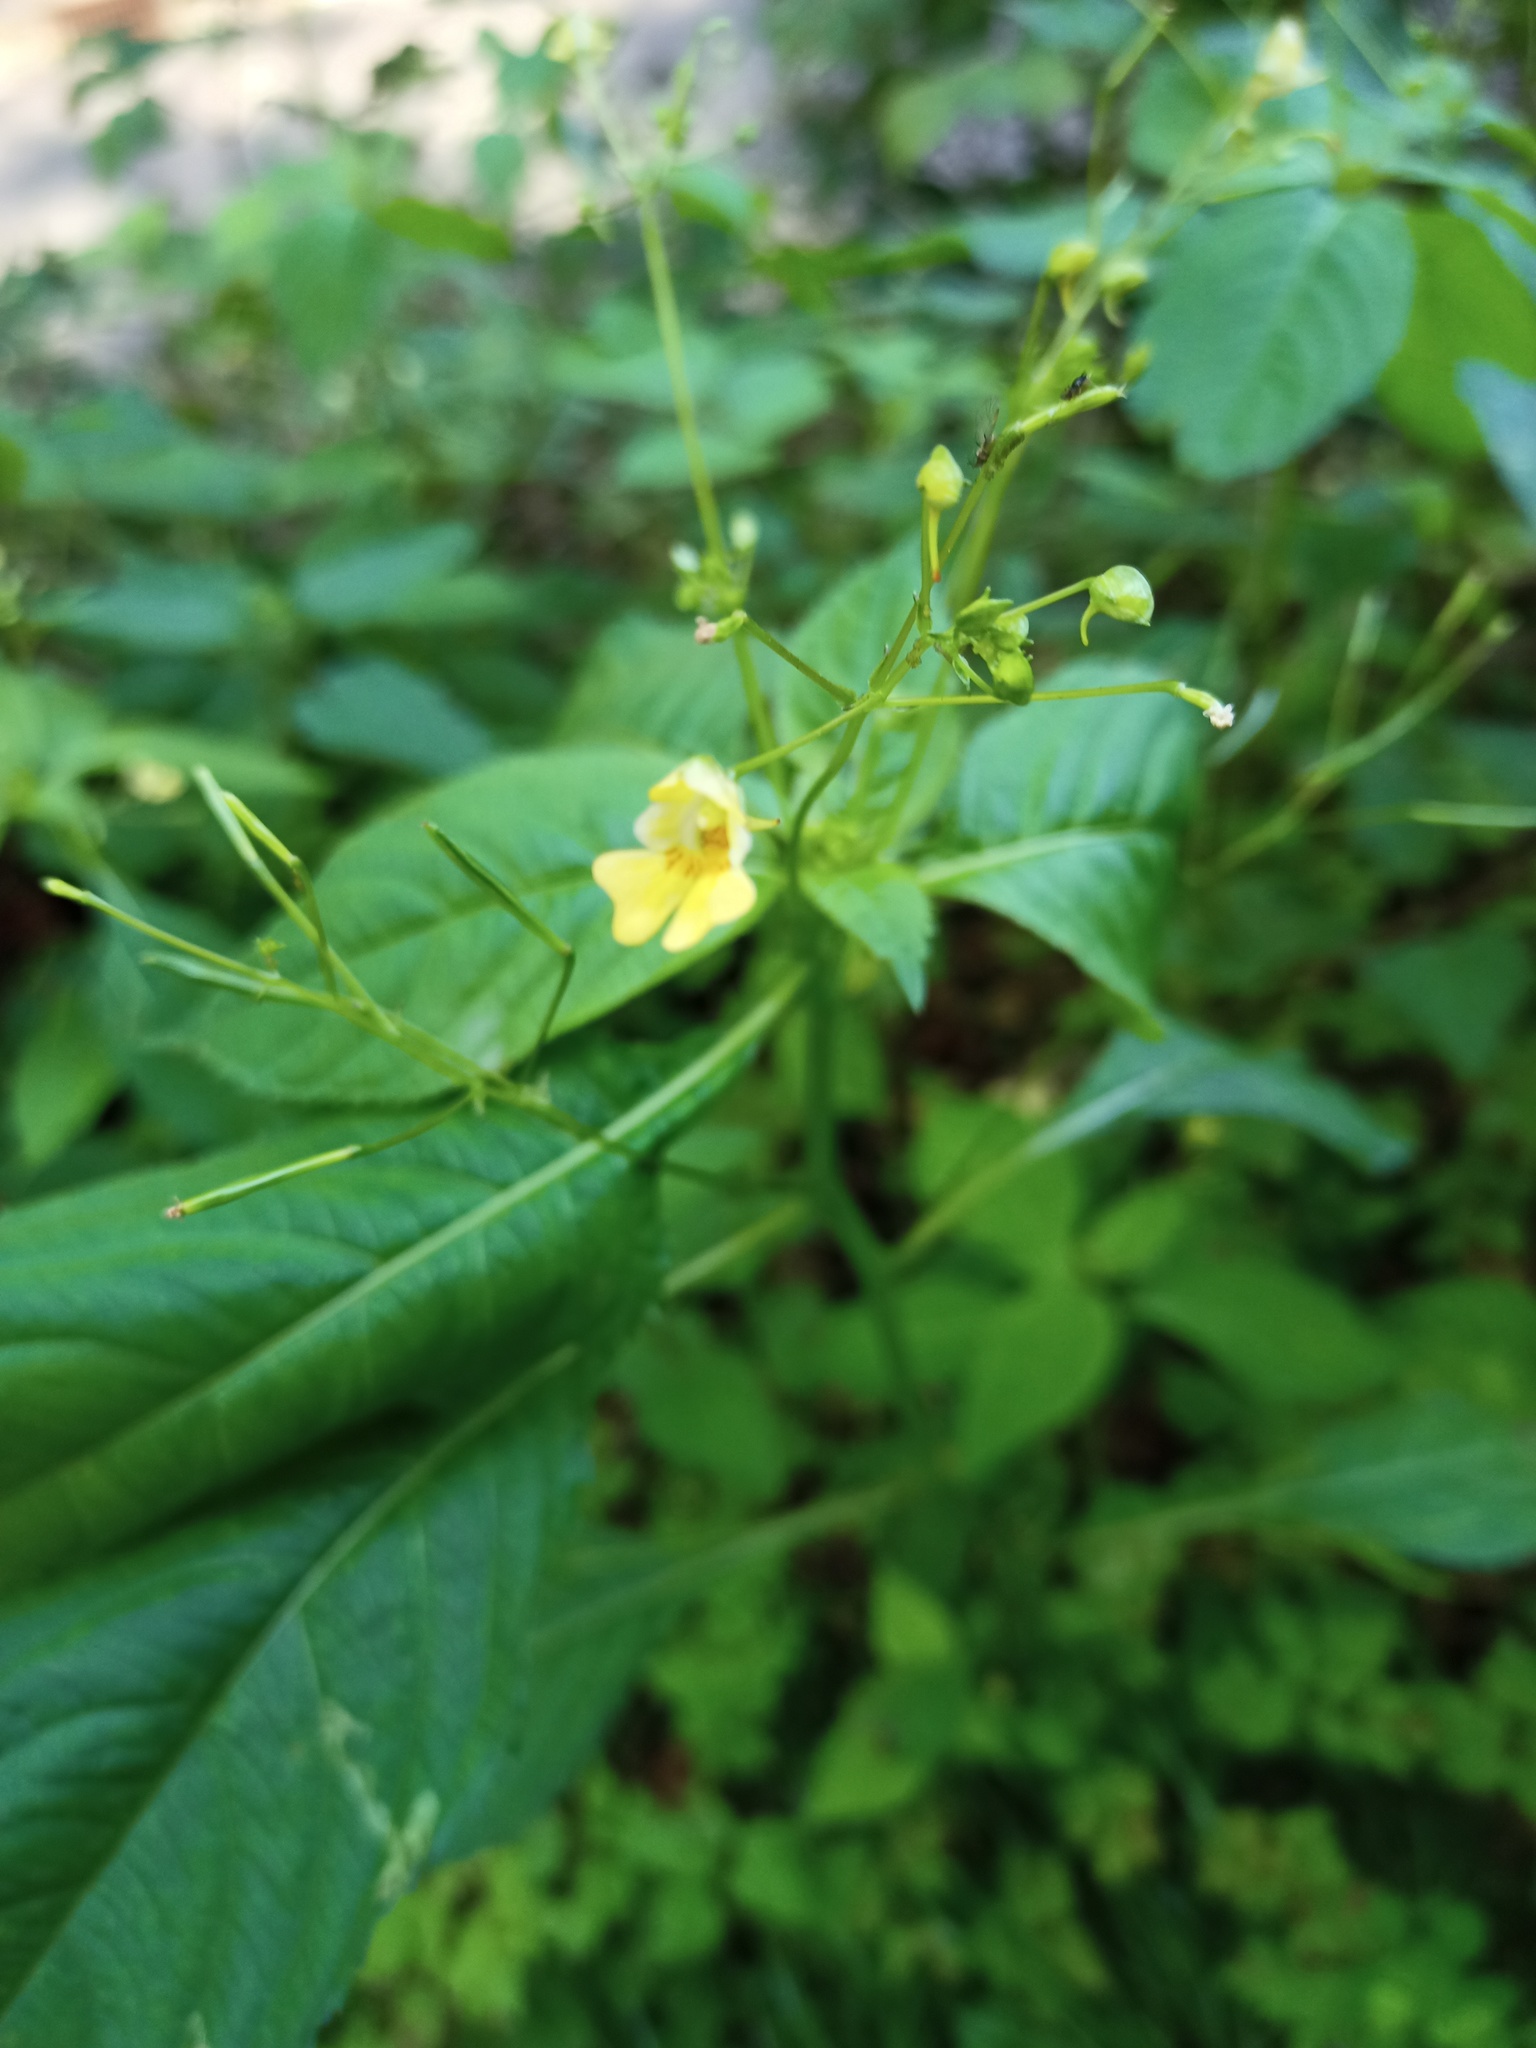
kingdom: Plantae
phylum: Tracheophyta
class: Magnoliopsida
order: Ericales
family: Balsaminaceae
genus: Impatiens
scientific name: Impatiens parviflora
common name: Small balsam
